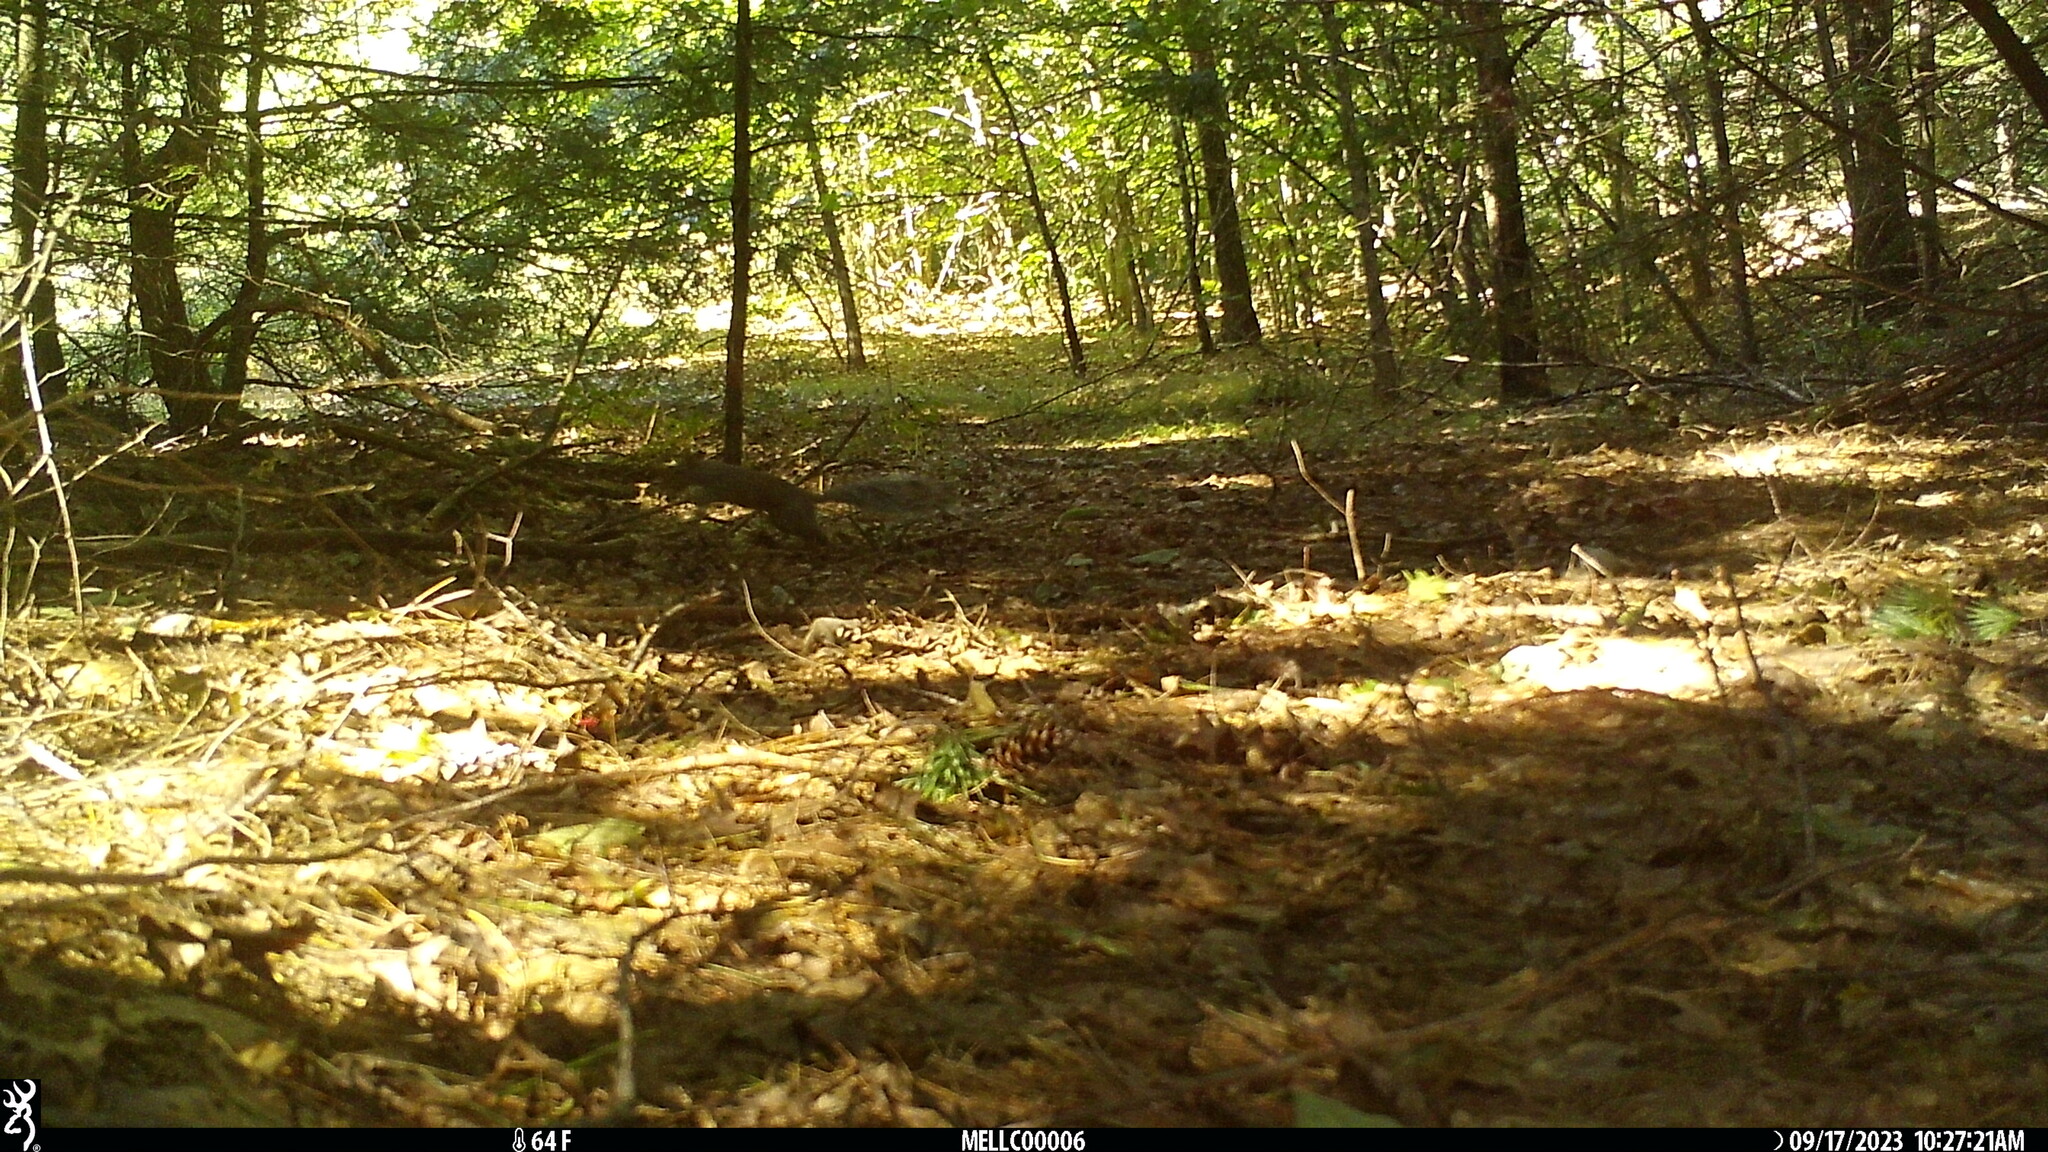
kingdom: Animalia
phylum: Chordata
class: Mammalia
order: Rodentia
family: Sciuridae
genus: Sciurus
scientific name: Sciurus carolinensis
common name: Eastern gray squirrel
